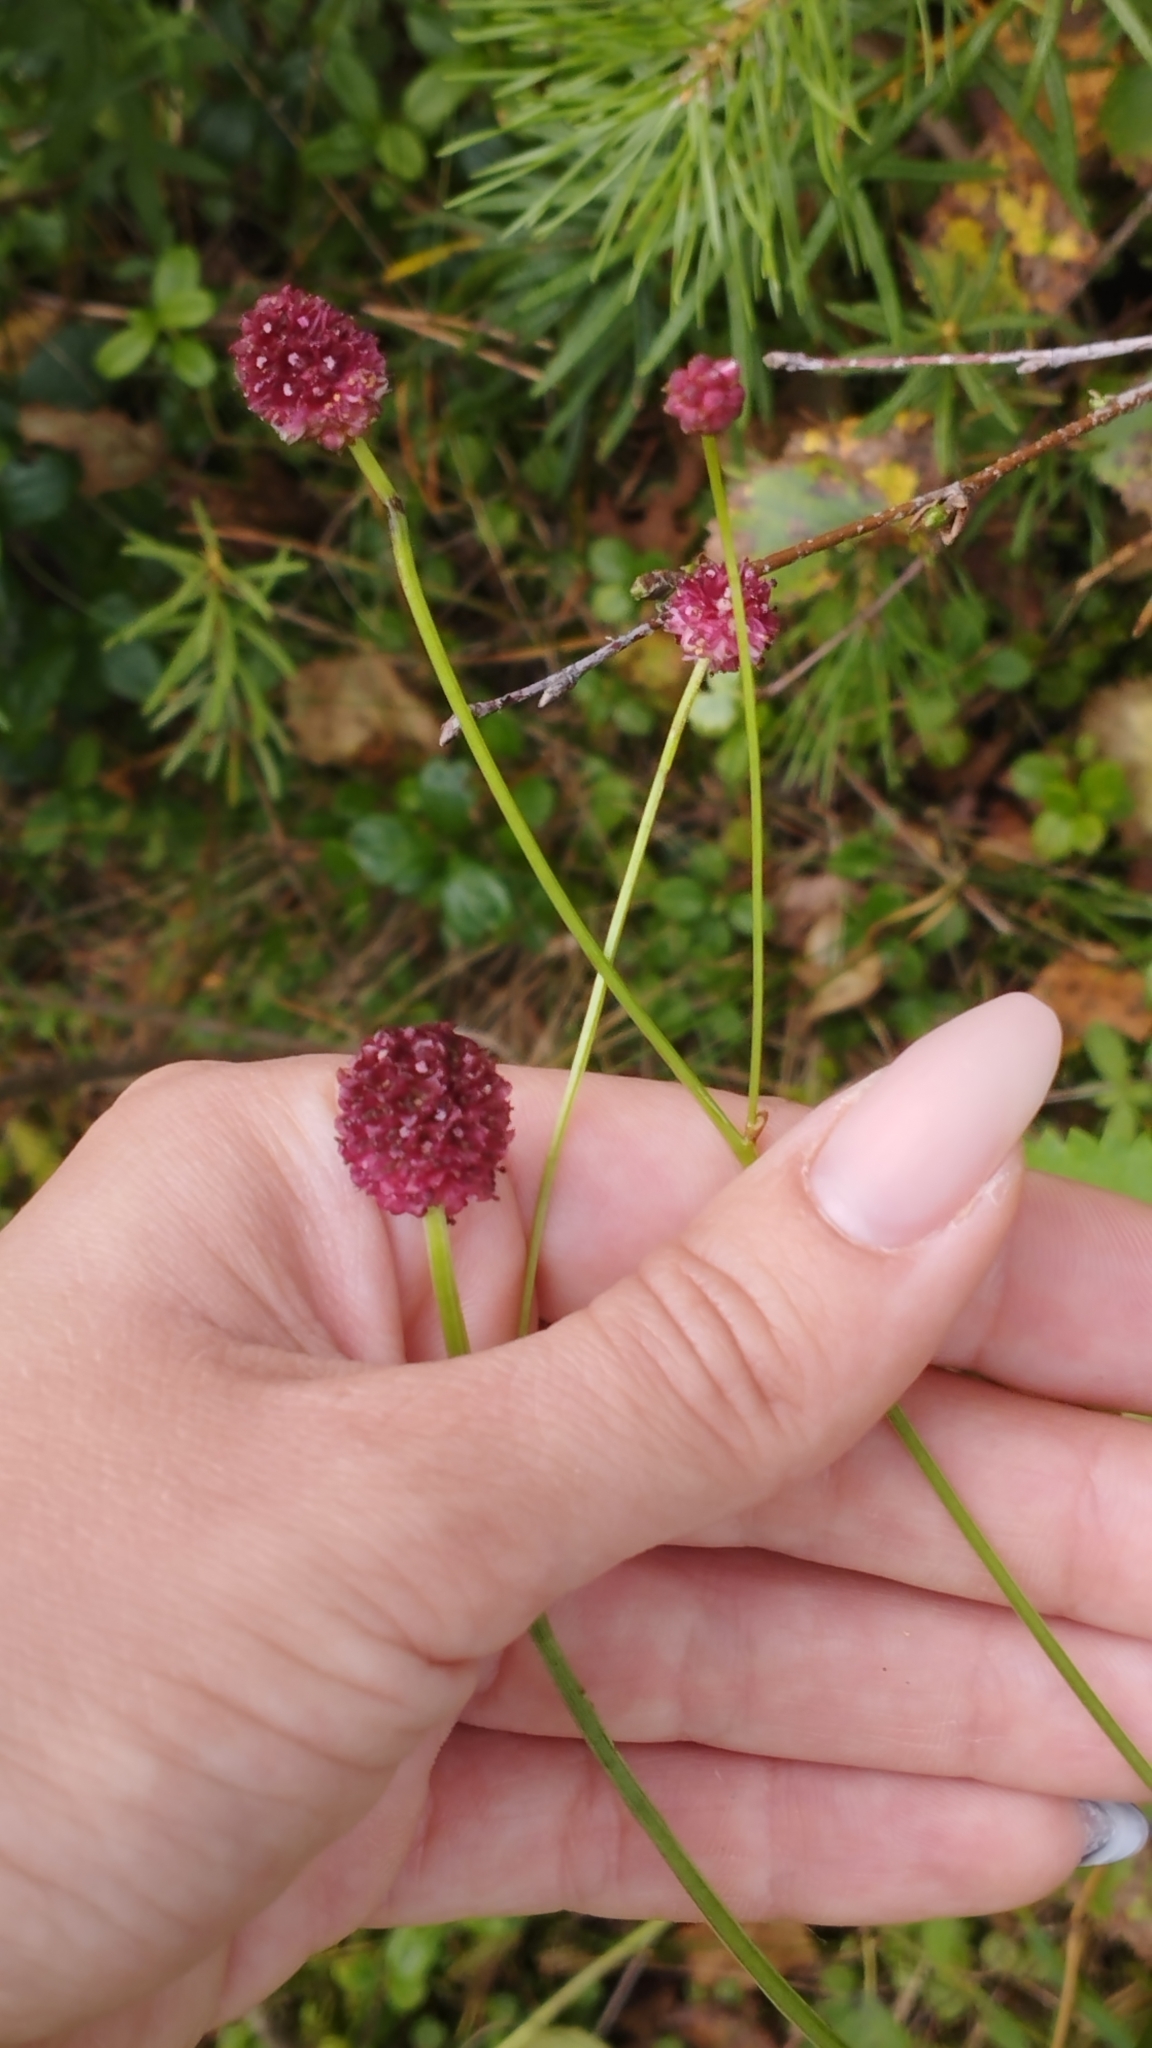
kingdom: Plantae
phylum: Tracheophyta
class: Magnoliopsida
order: Rosales
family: Rosaceae
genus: Sanguisorba
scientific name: Sanguisorba officinalis
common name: Great burnet
